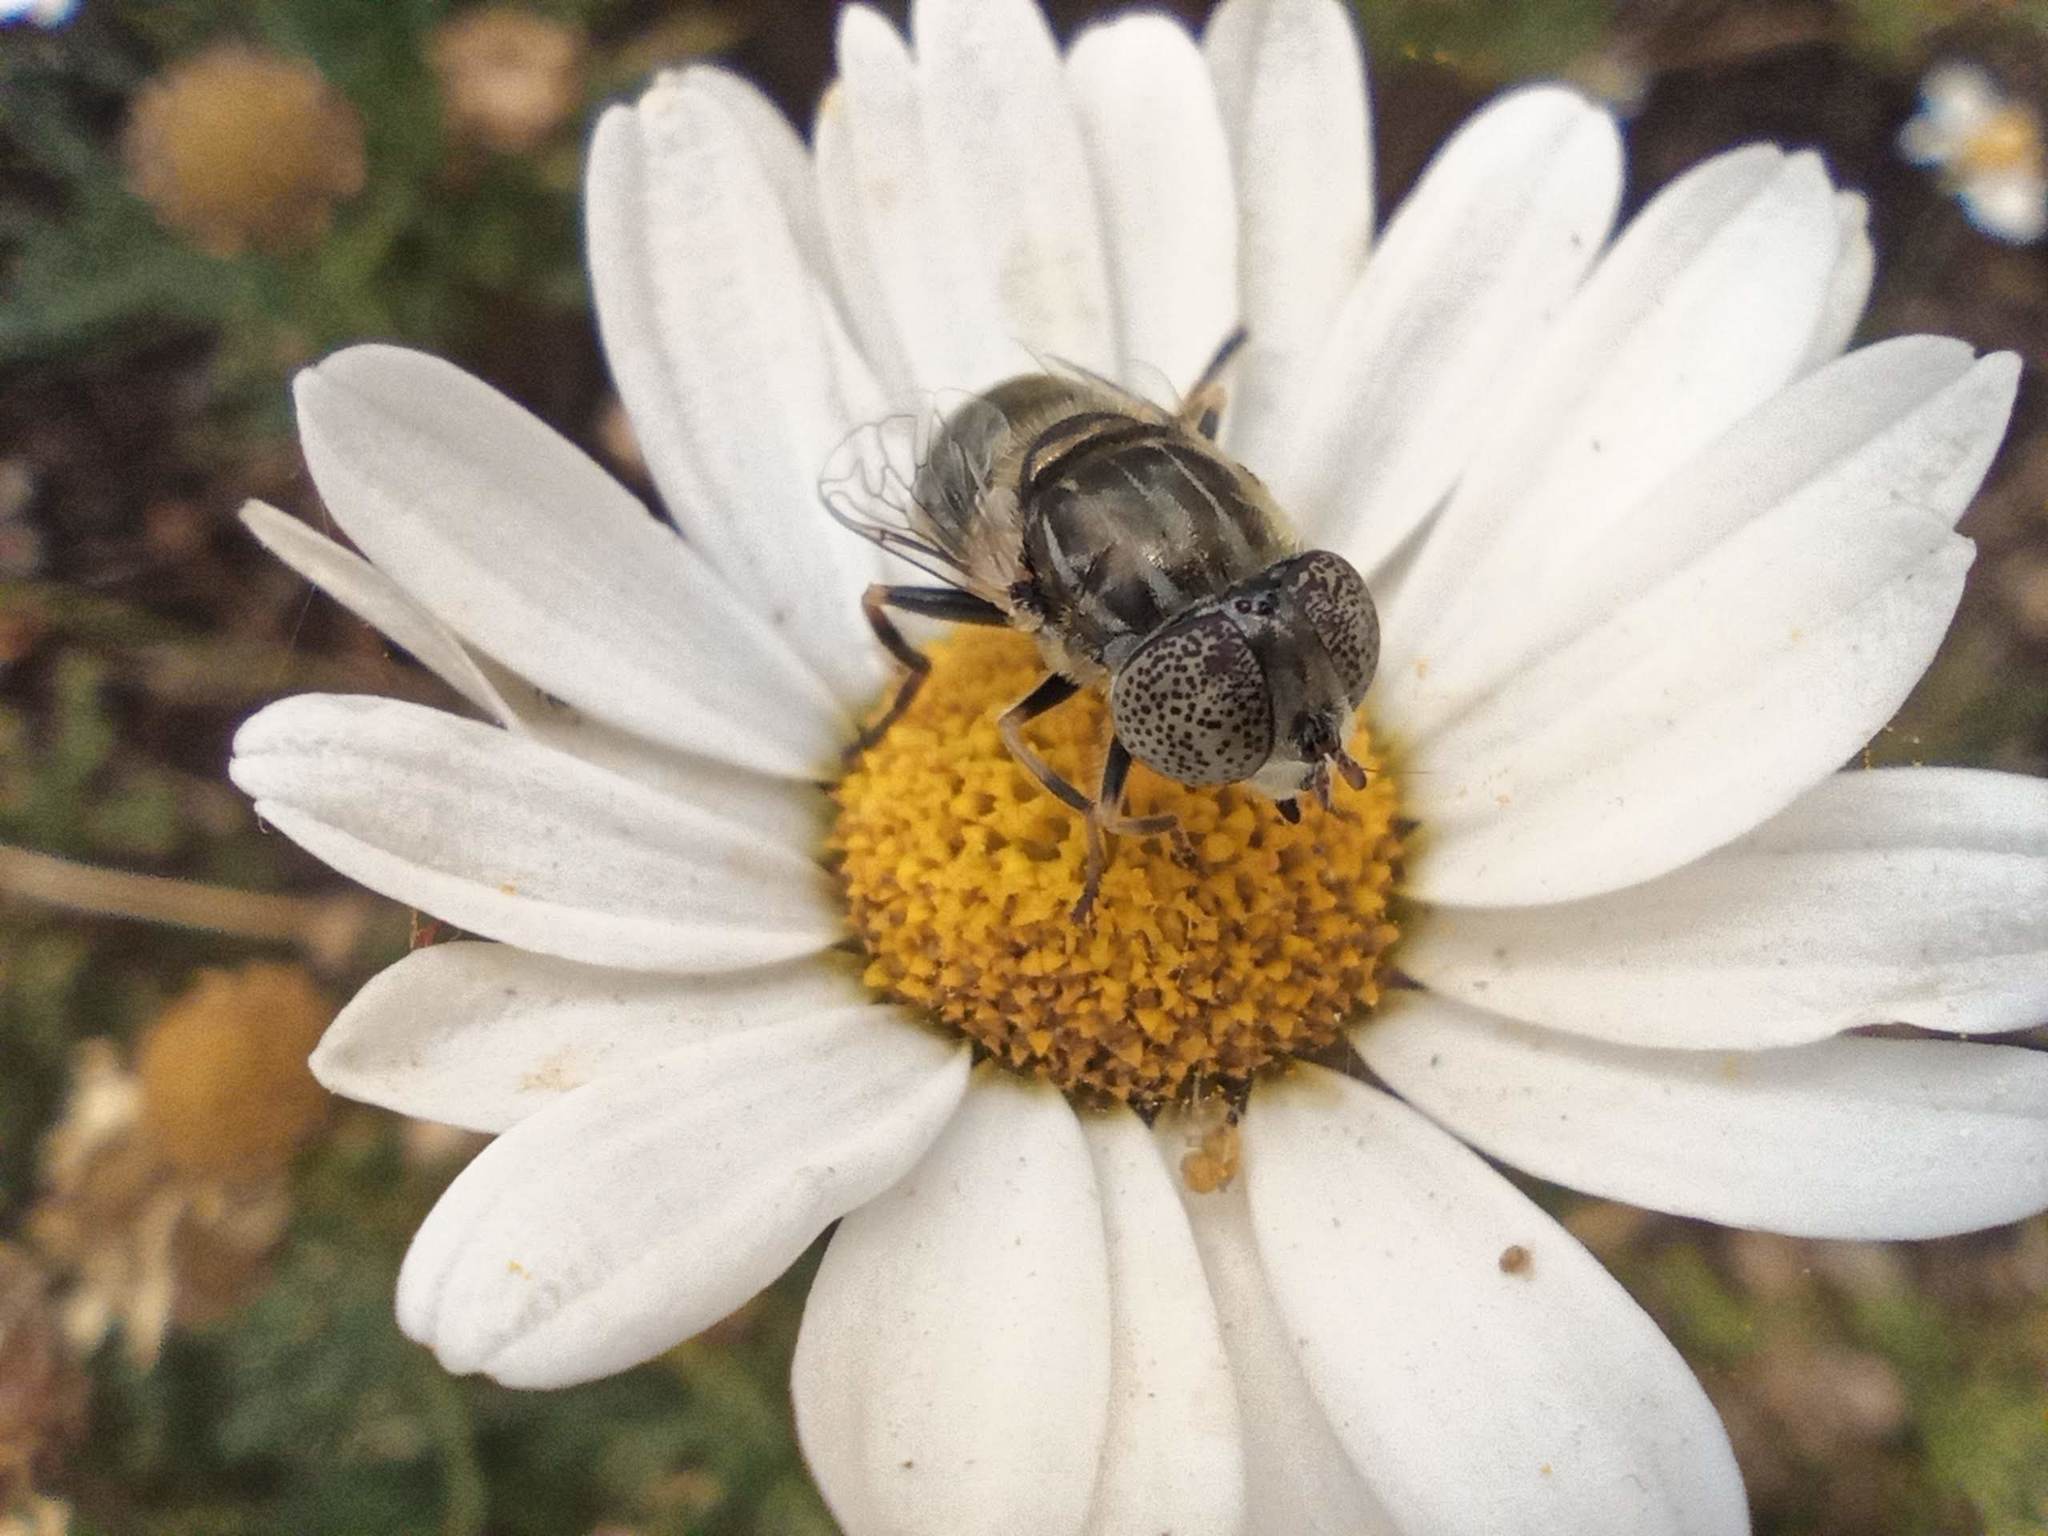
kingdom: Animalia
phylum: Arthropoda
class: Insecta
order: Diptera
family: Syrphidae
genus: Eristalinus
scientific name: Eristalinus aeneus
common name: Syrphid fly
